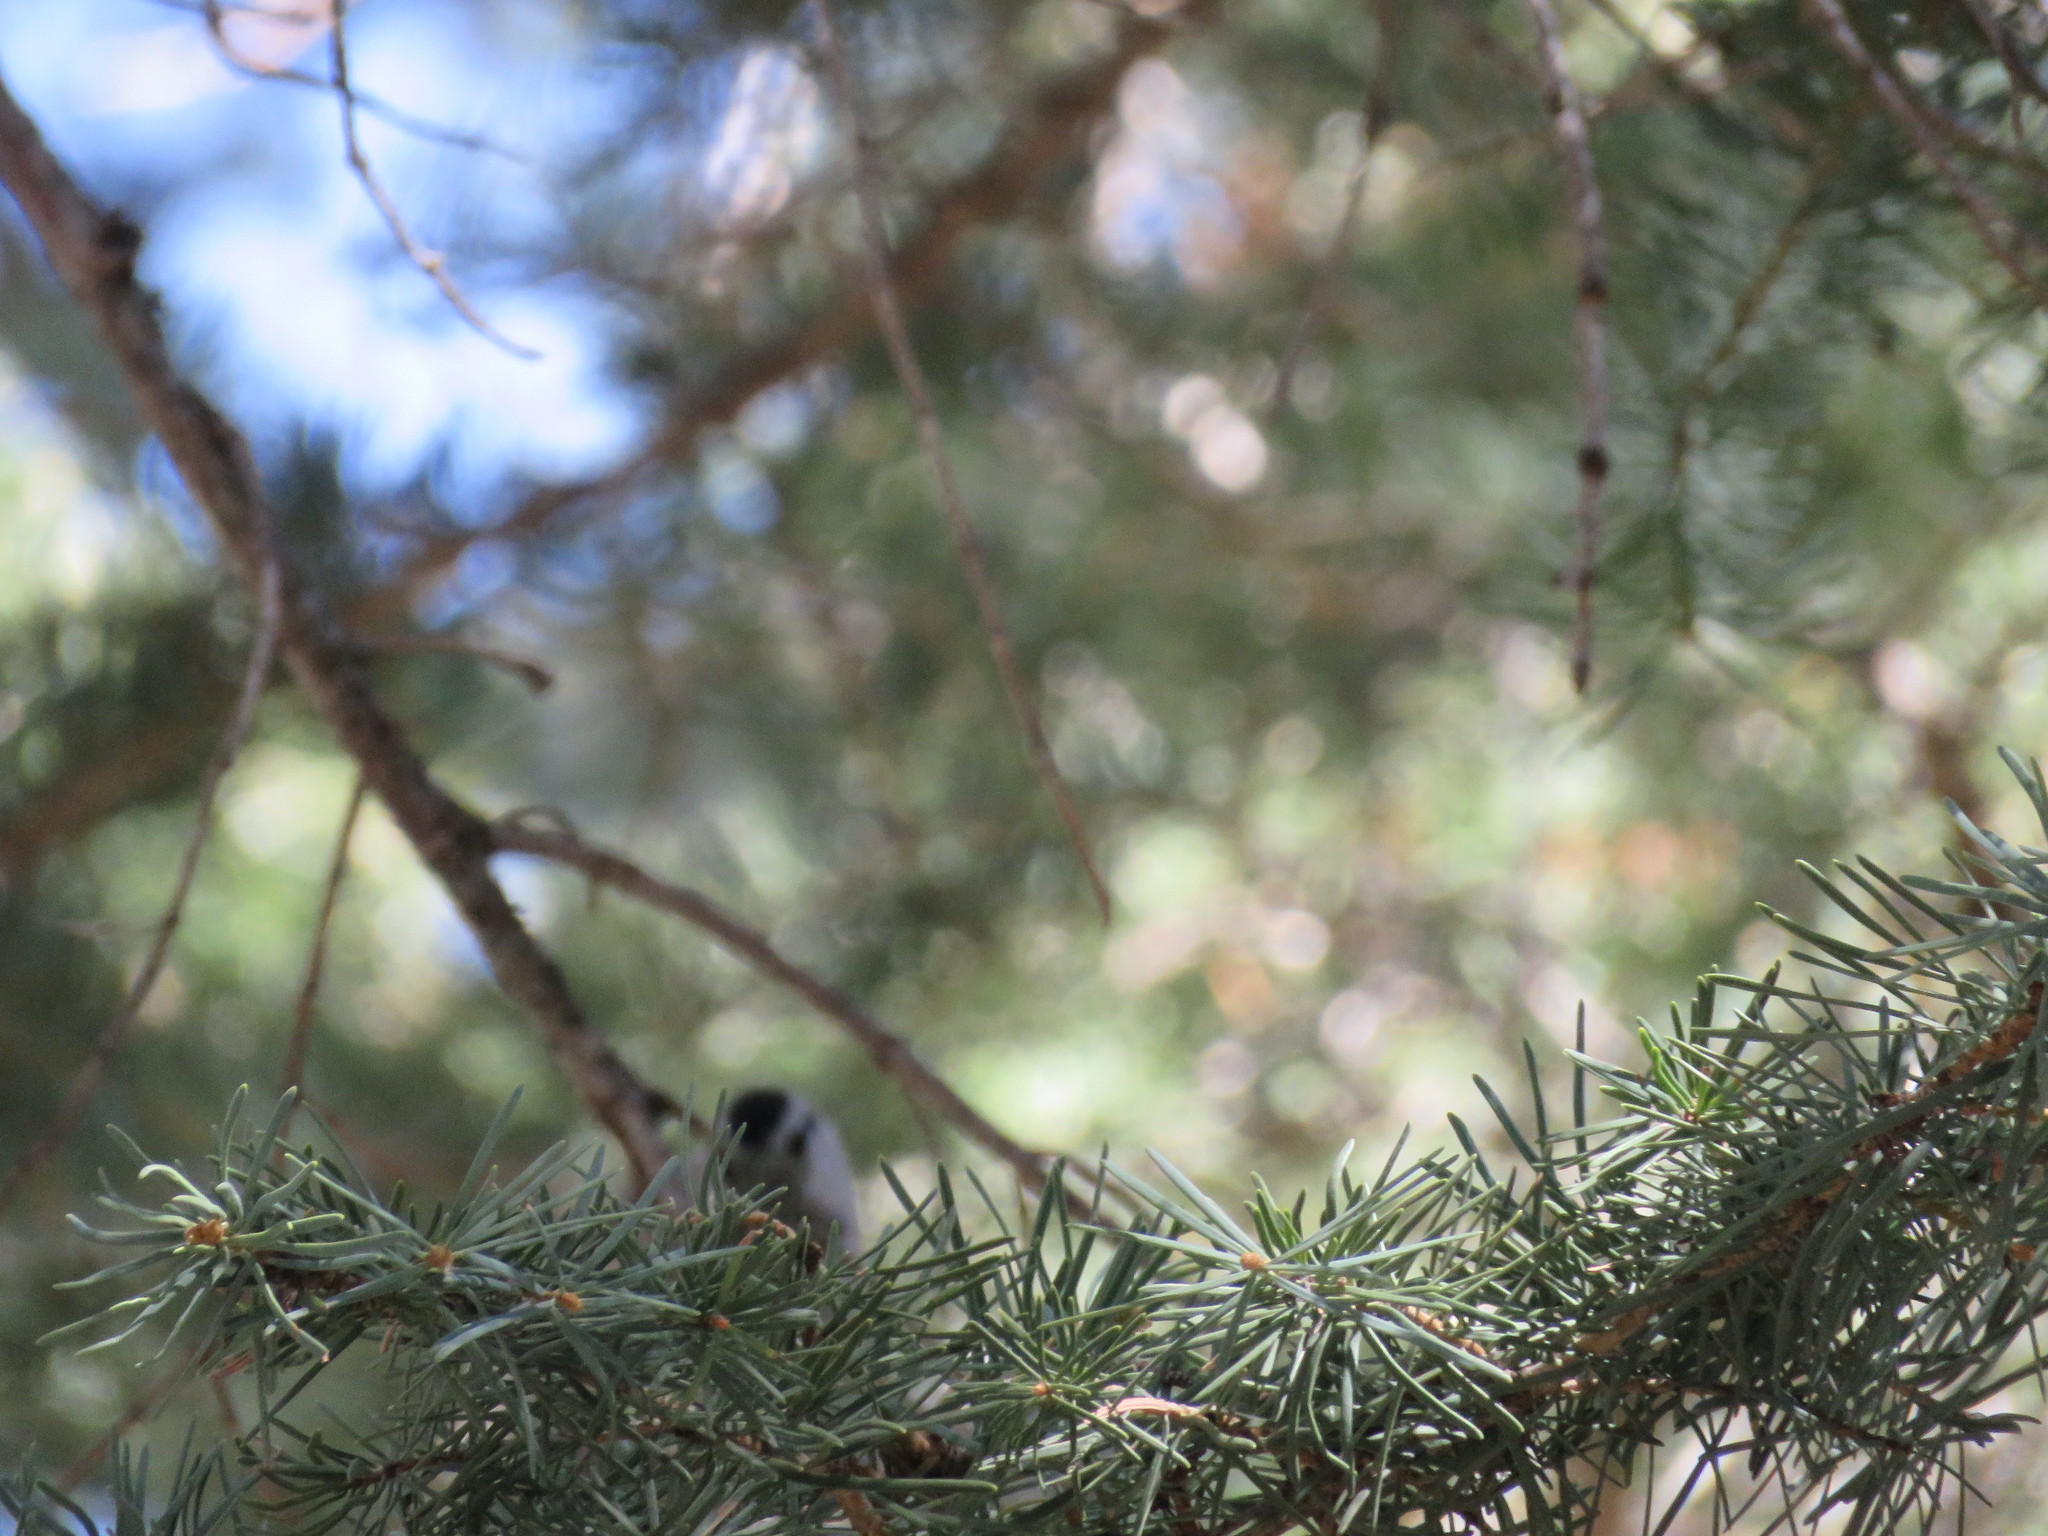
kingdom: Animalia
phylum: Chordata
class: Aves
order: Passeriformes
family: Paridae
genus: Poecile
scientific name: Poecile gambeli
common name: Mountain chickadee
